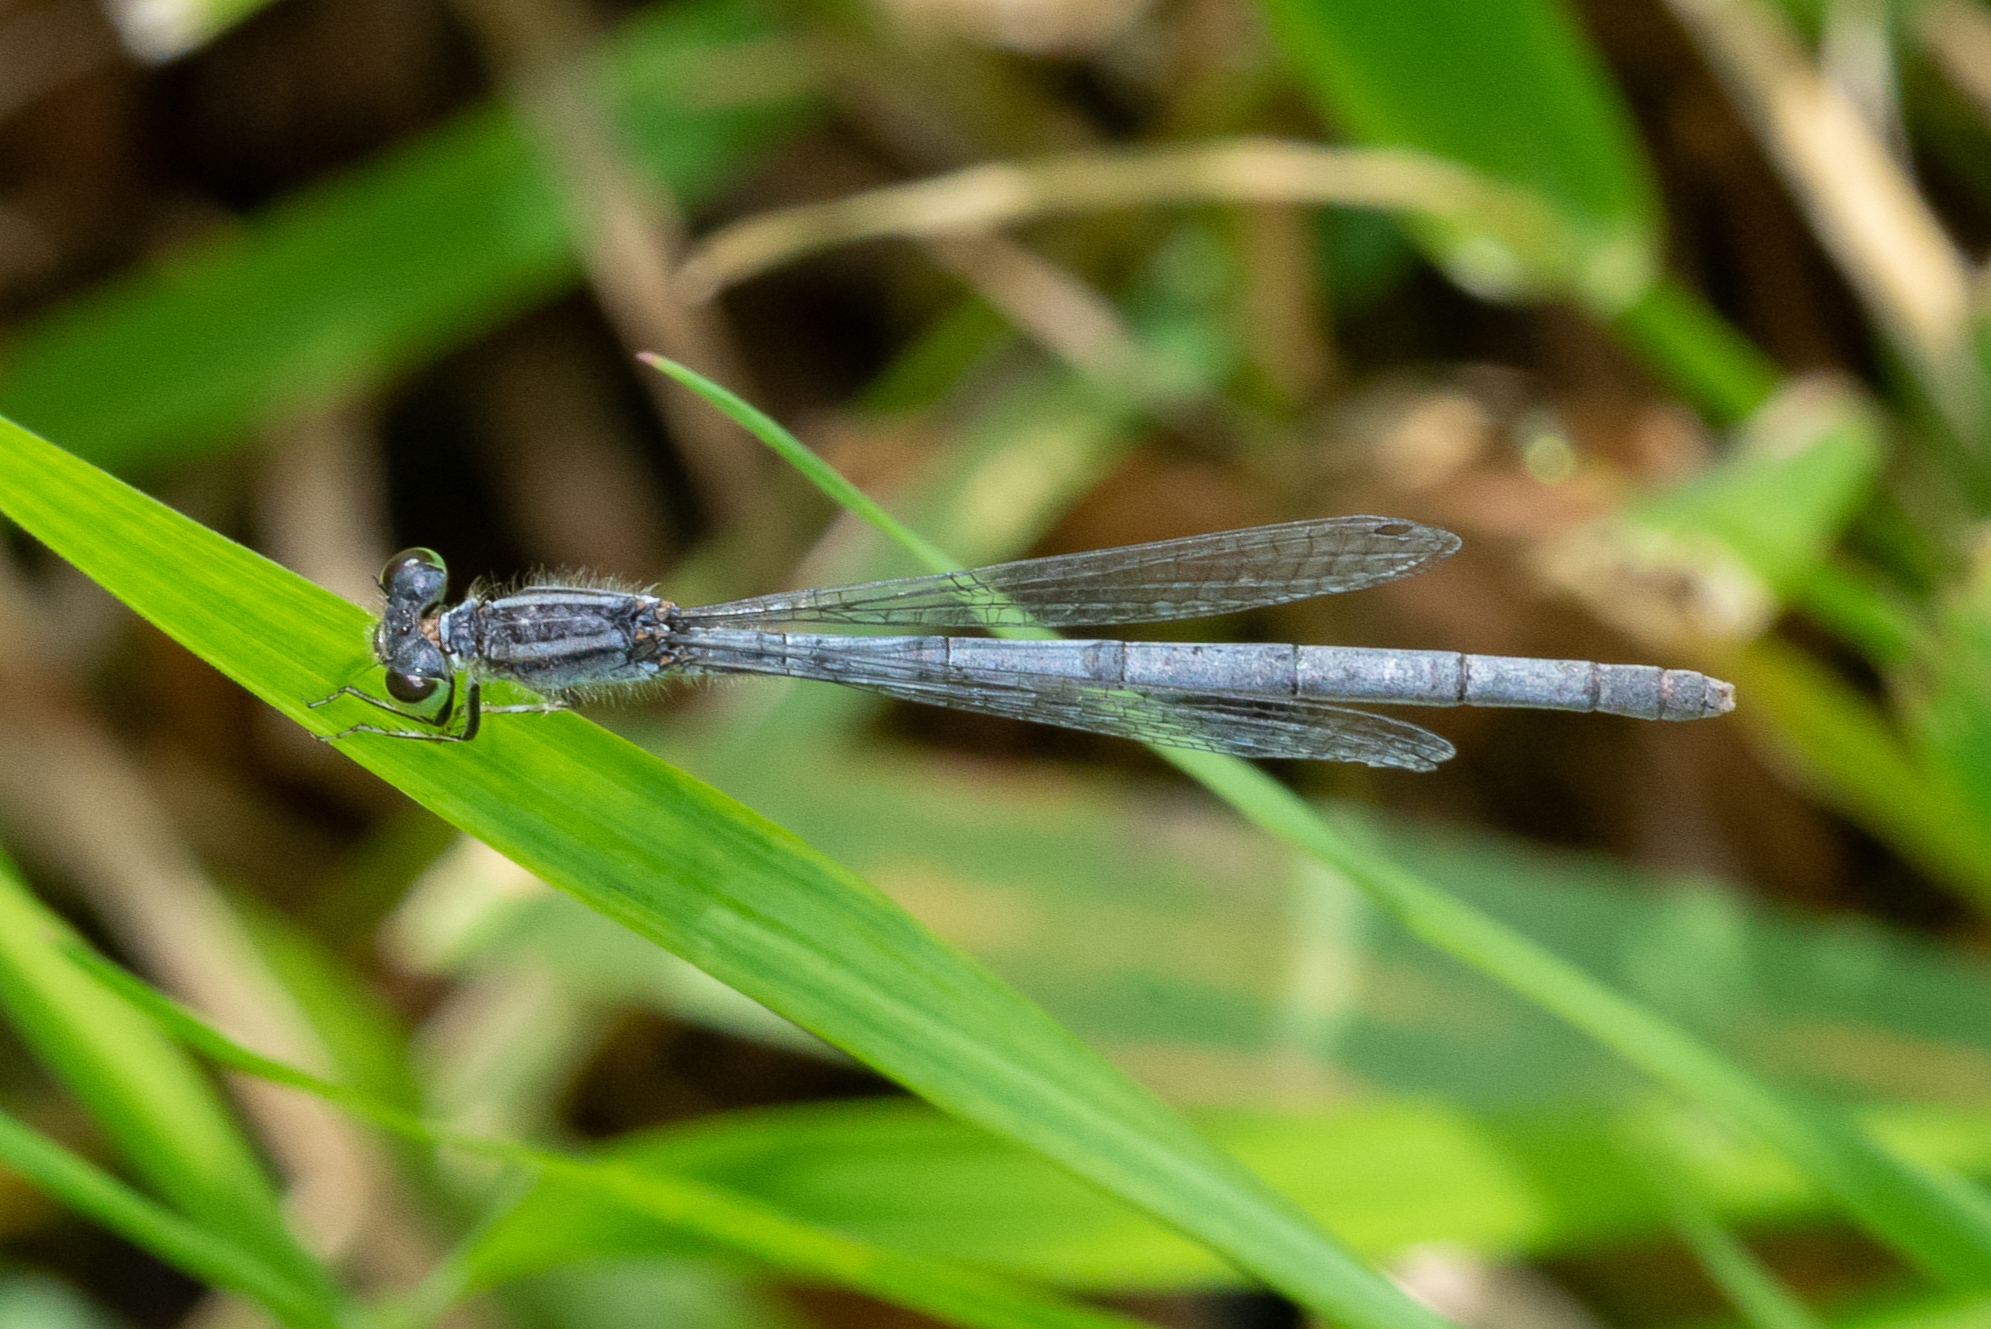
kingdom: Animalia
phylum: Arthropoda
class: Insecta
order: Odonata
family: Coenagrionidae
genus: Ischnura
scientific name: Ischnura verticalis
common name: Eastern forktail
